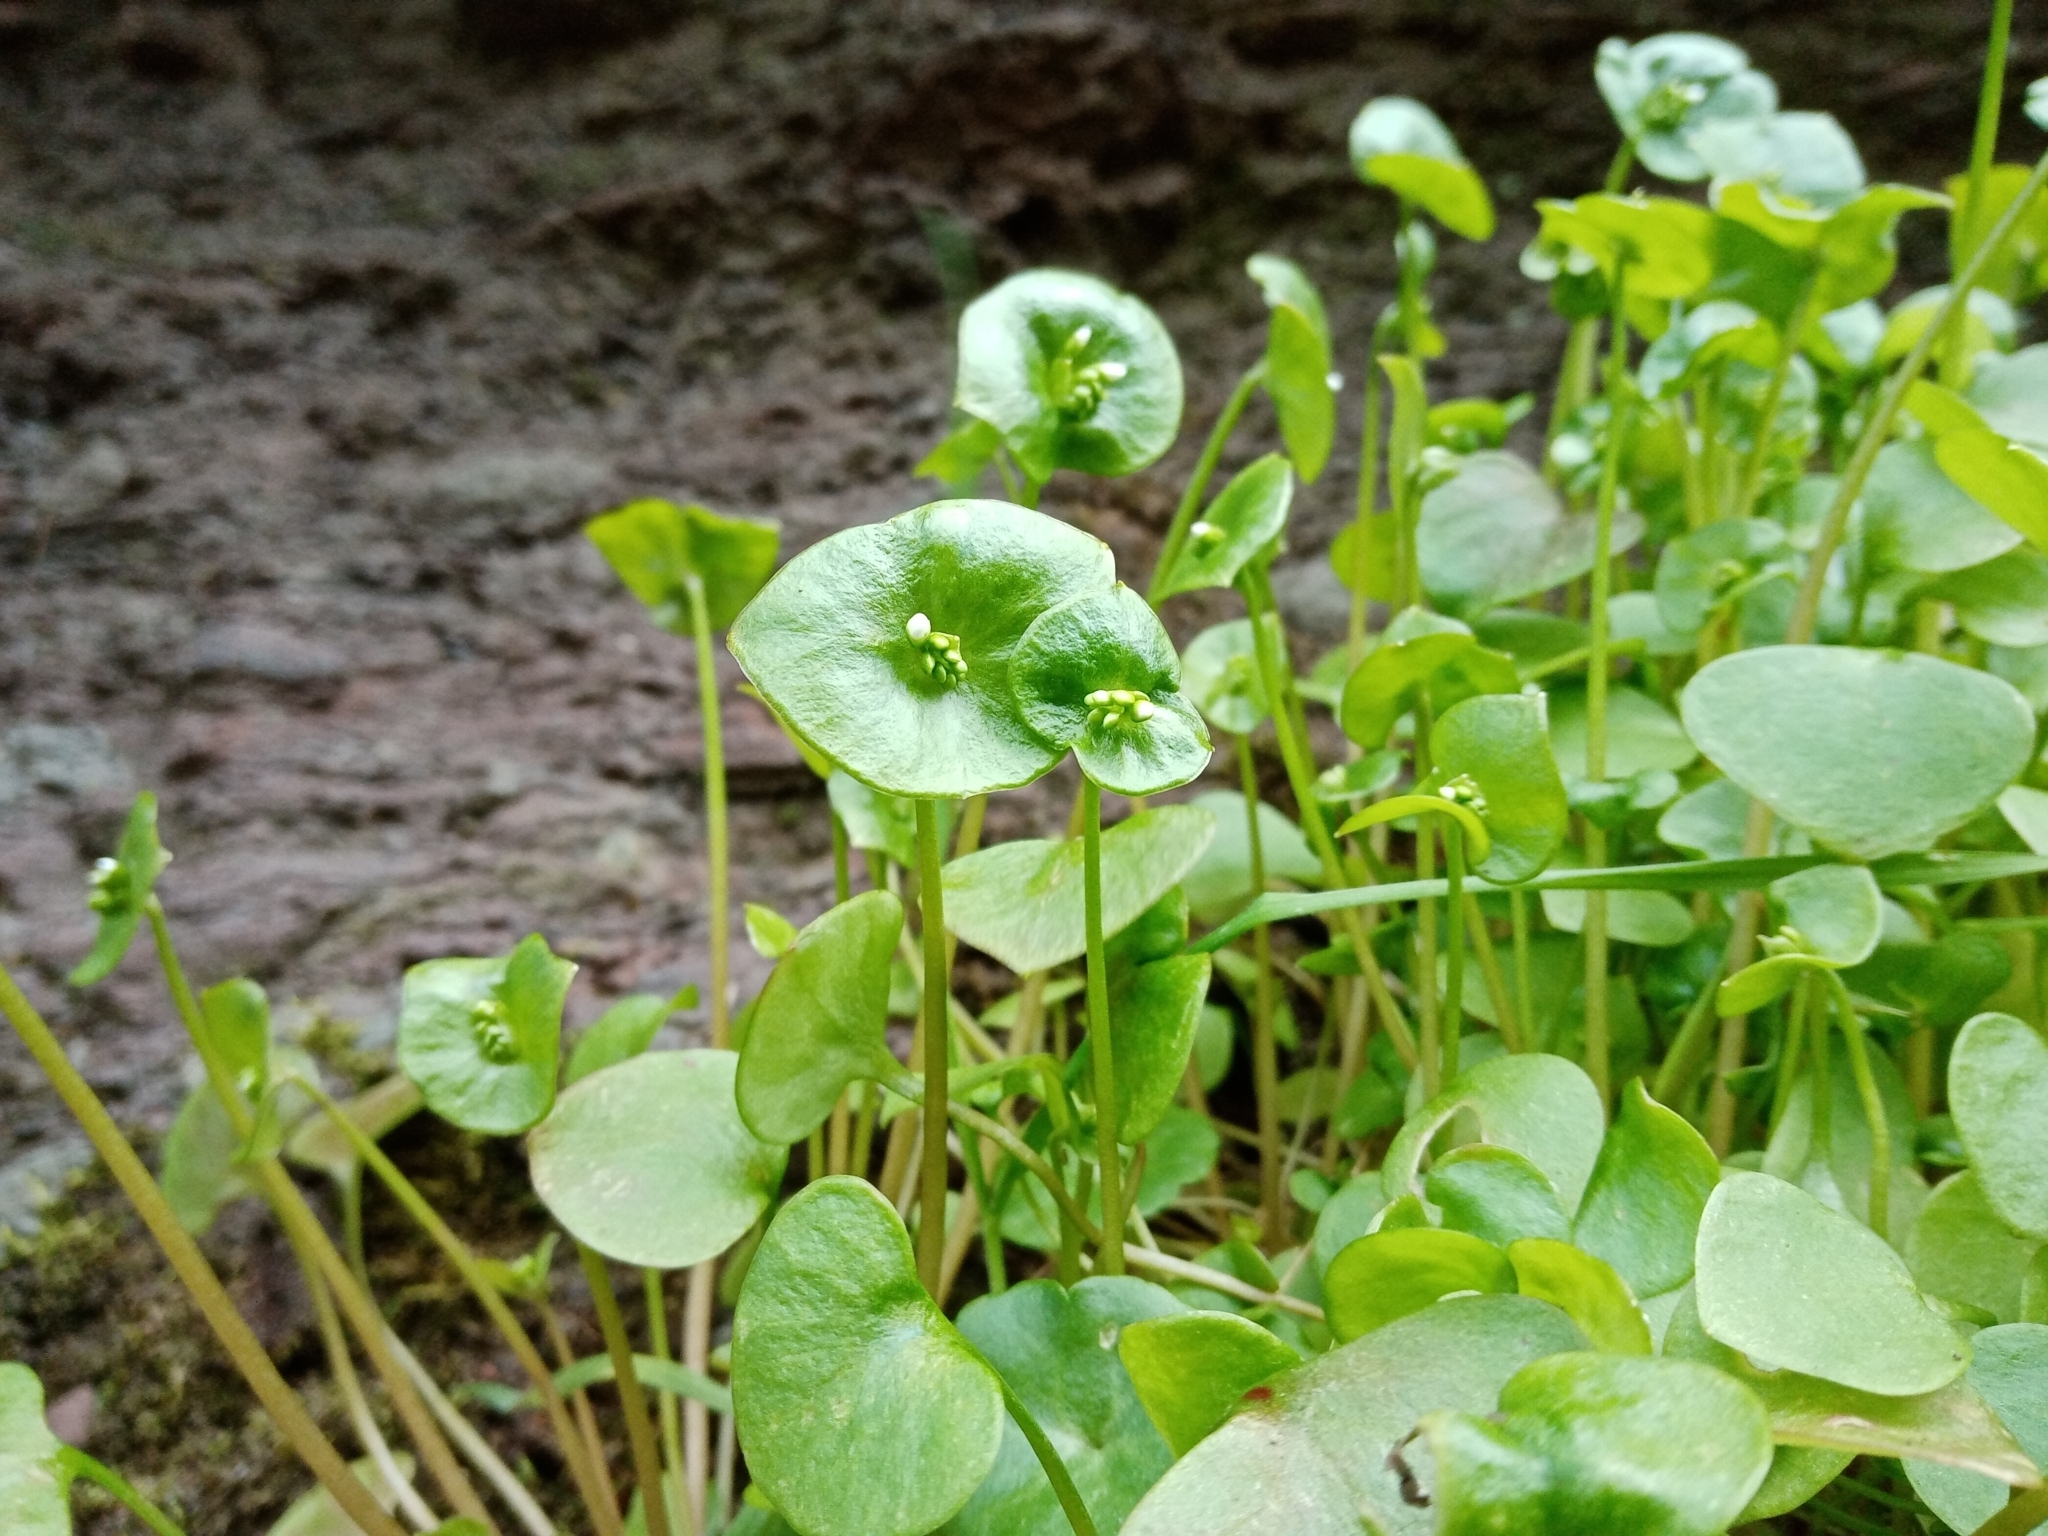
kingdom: Plantae
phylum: Tracheophyta
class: Magnoliopsida
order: Caryophyllales
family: Montiaceae
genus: Claytonia
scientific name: Claytonia perfoliata
